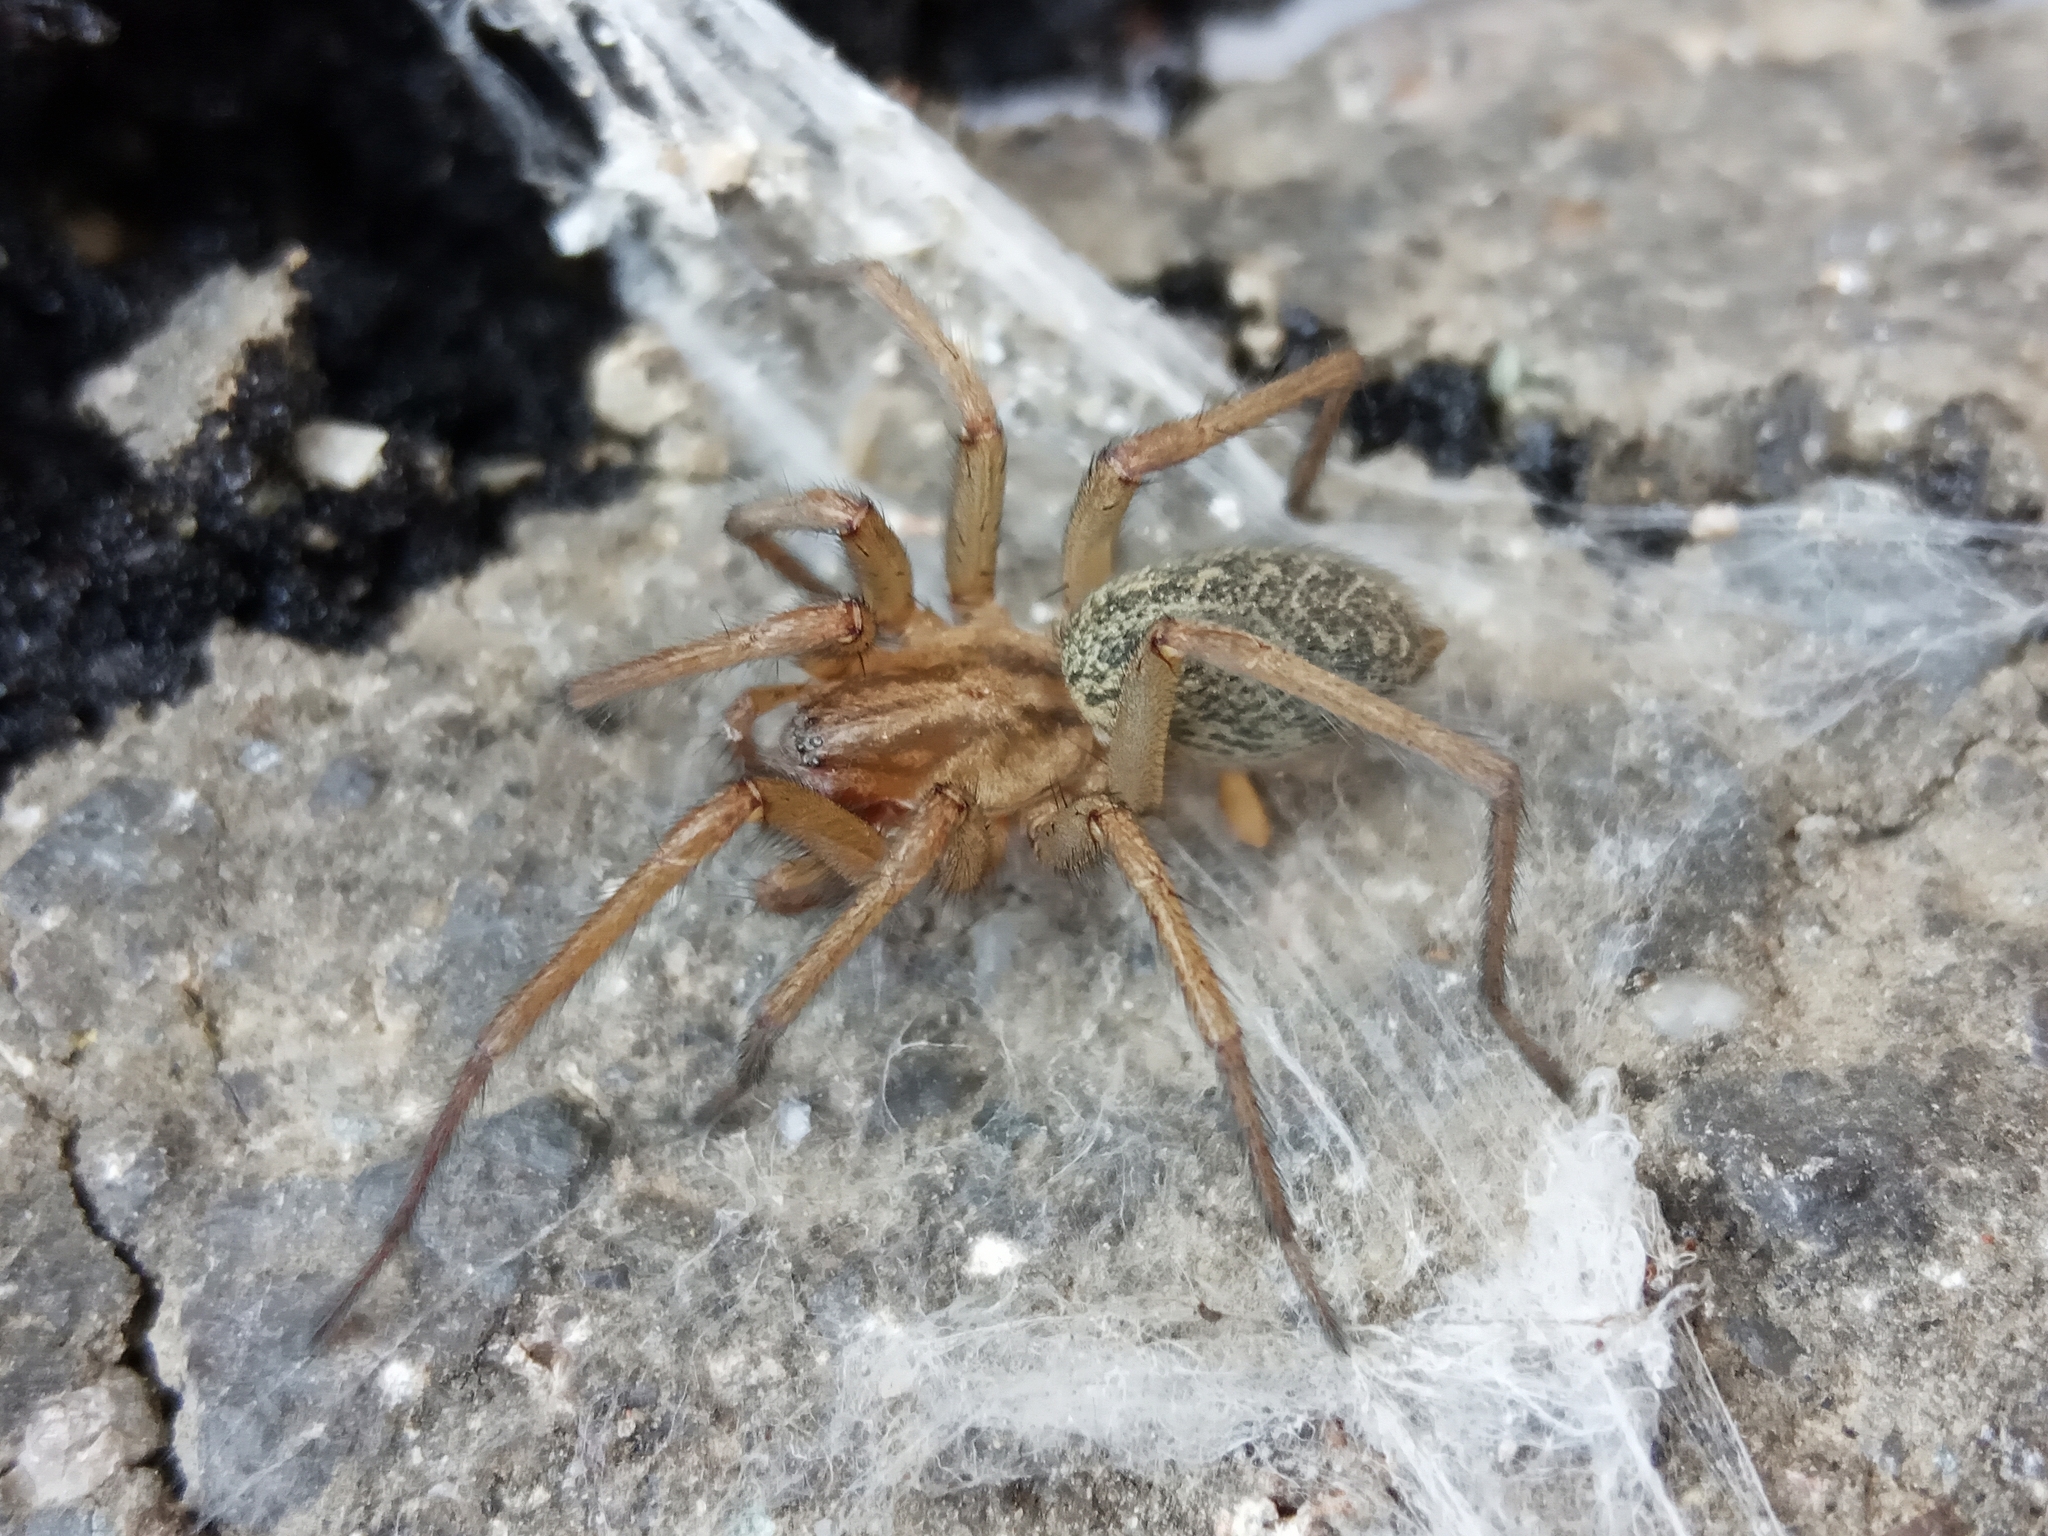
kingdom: Animalia
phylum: Arthropoda
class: Arachnida
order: Araneae
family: Agelenidae
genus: Eratigena
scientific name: Eratigena agrestis
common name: Hobo spider
